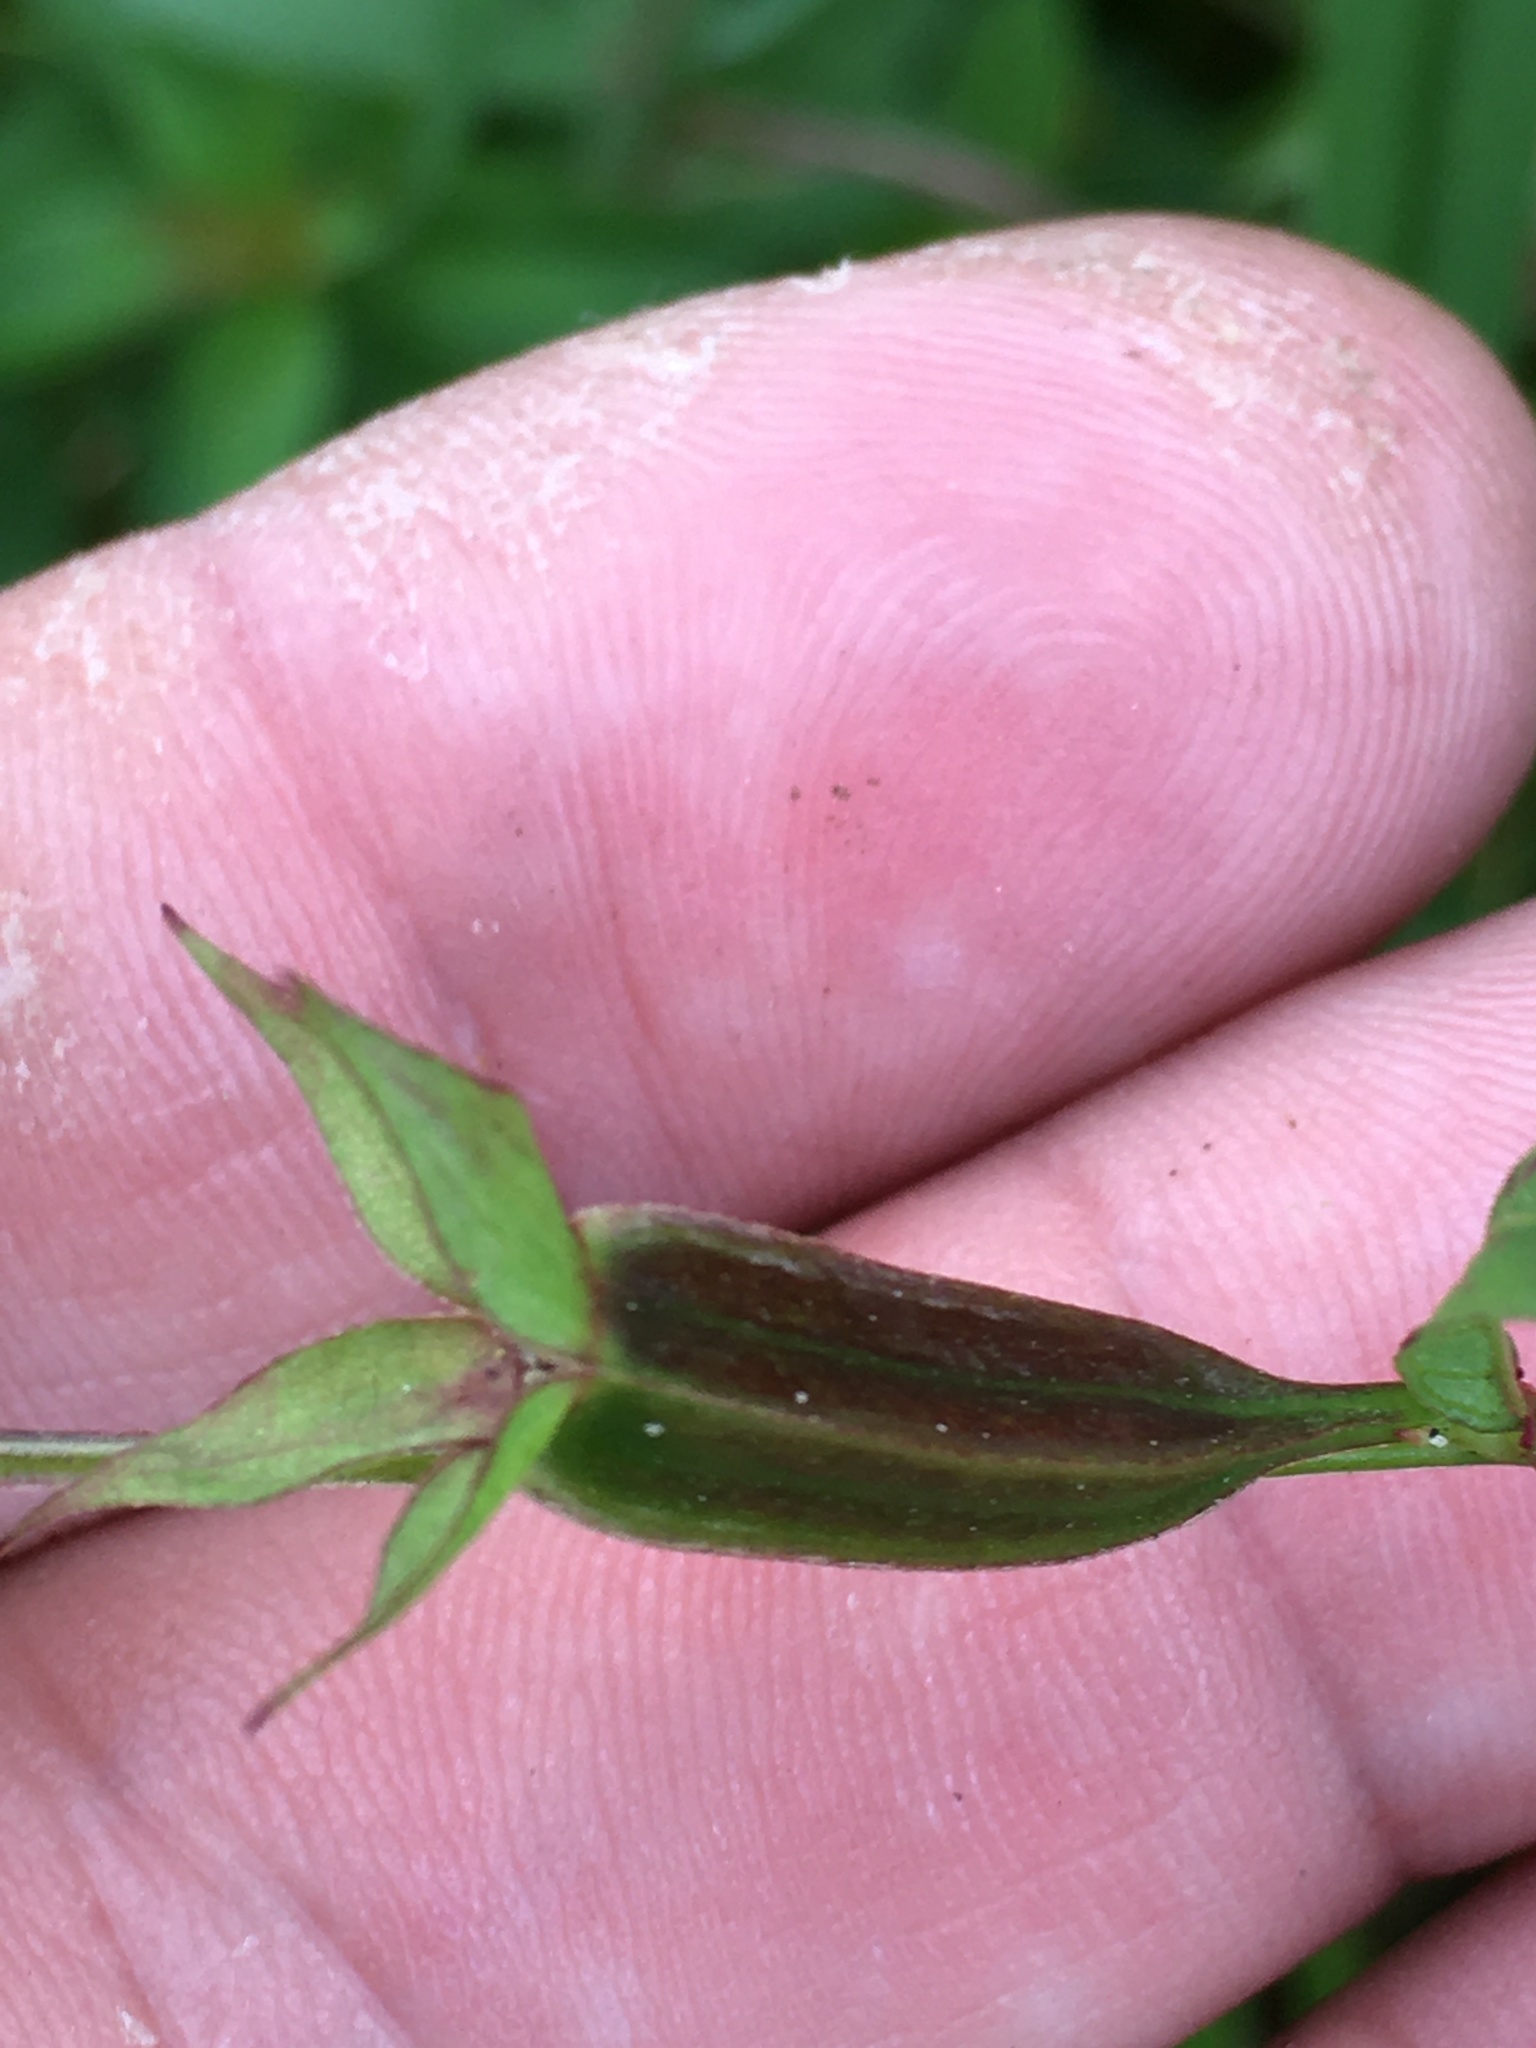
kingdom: Plantae
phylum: Tracheophyta
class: Magnoliopsida
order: Myrtales
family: Onagraceae
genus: Ludwigia
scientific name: Ludwigia decurrens
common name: Winged water-primrose
